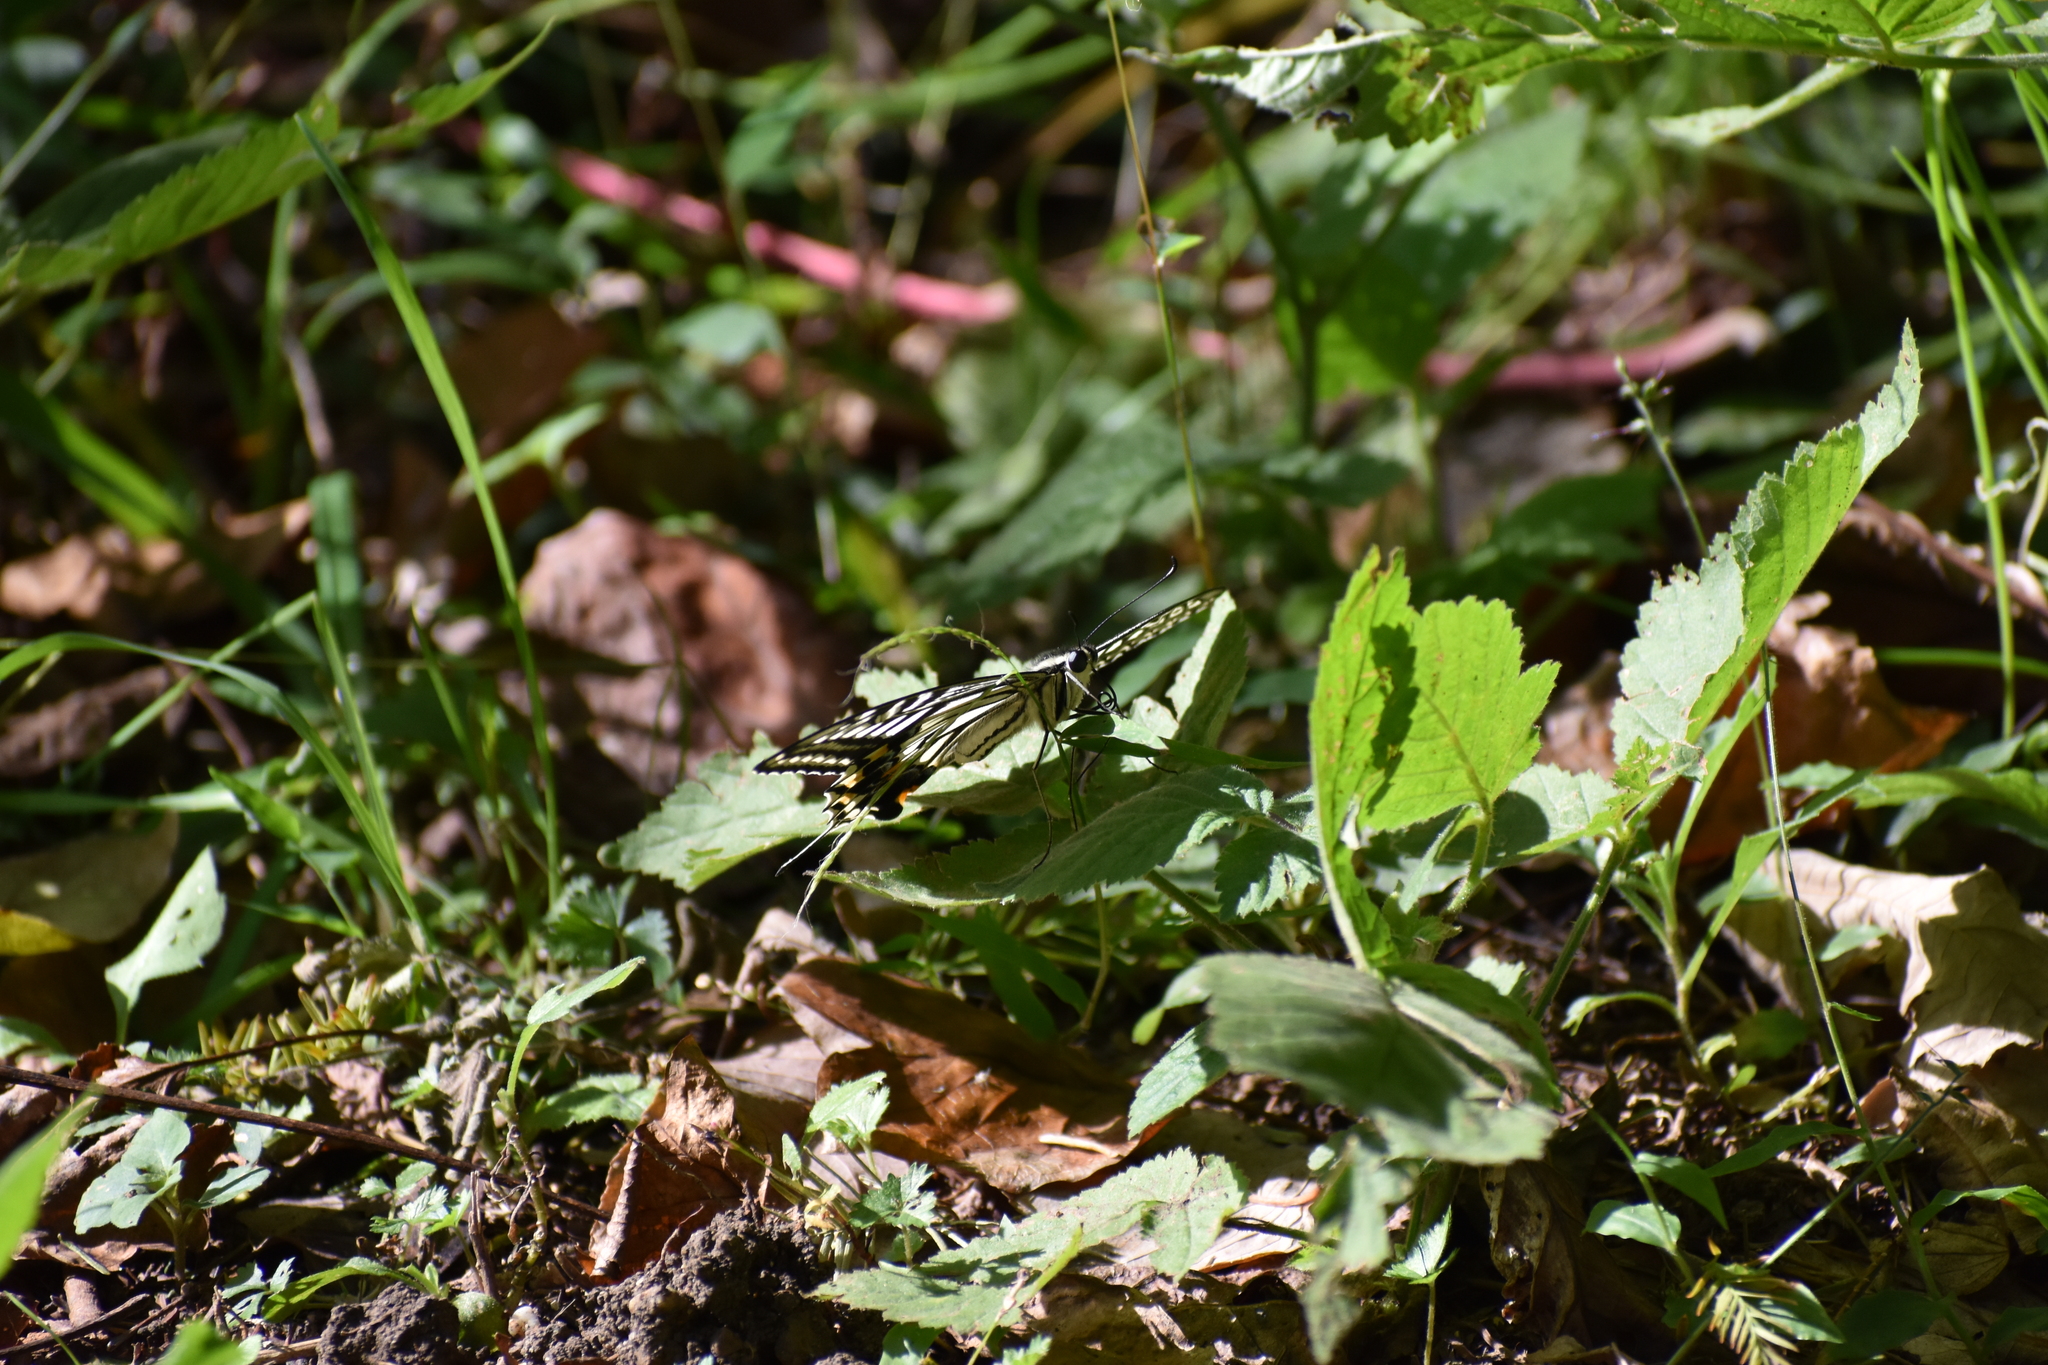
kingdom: Animalia
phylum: Arthropoda
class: Insecta
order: Lepidoptera
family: Papilionidae
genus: Papilio
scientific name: Papilio xuthus
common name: Asian swallowtail
